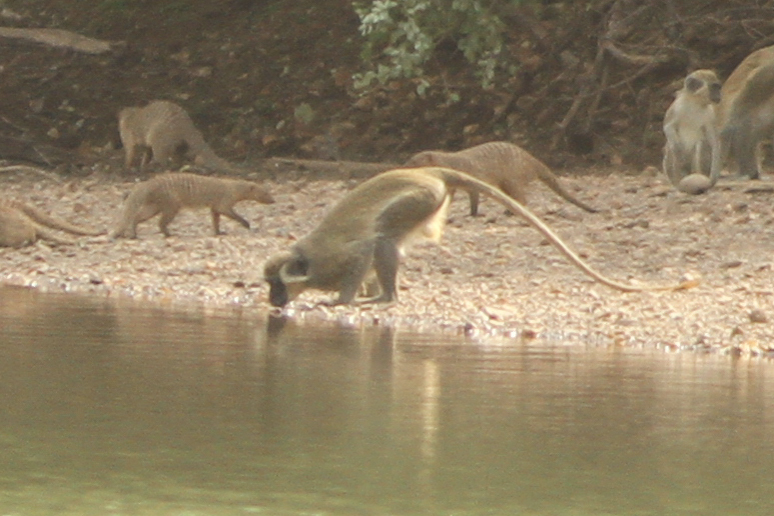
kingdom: Animalia
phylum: Chordata
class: Mammalia
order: Primates
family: Cercopithecidae
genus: Chlorocebus
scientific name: Chlorocebus sabaeus
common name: Green monkey
